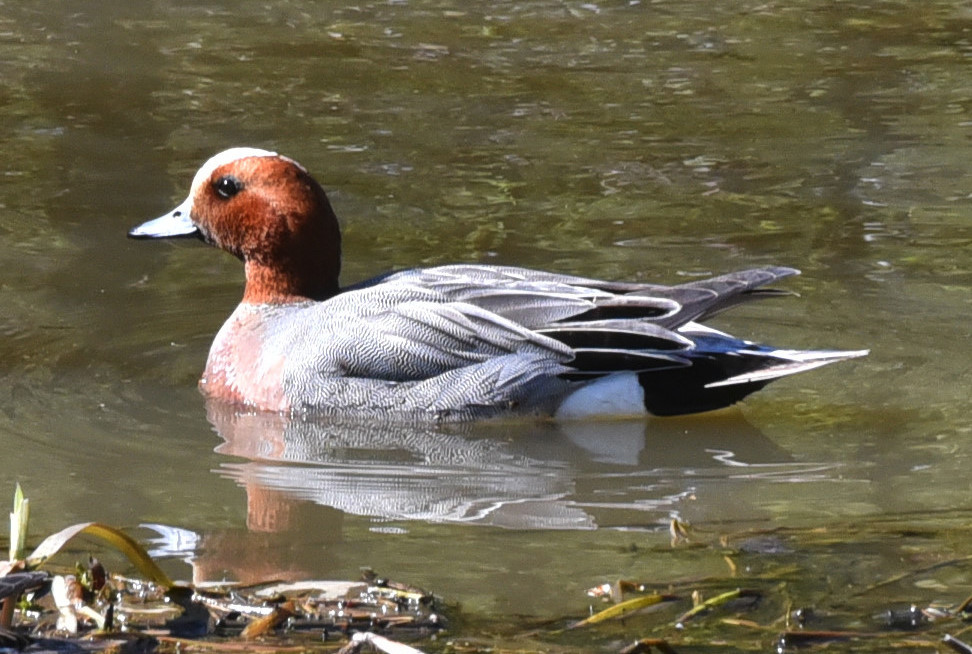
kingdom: Animalia
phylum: Chordata
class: Aves
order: Anseriformes
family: Anatidae
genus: Mareca
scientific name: Mareca penelope
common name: Eurasian wigeon
